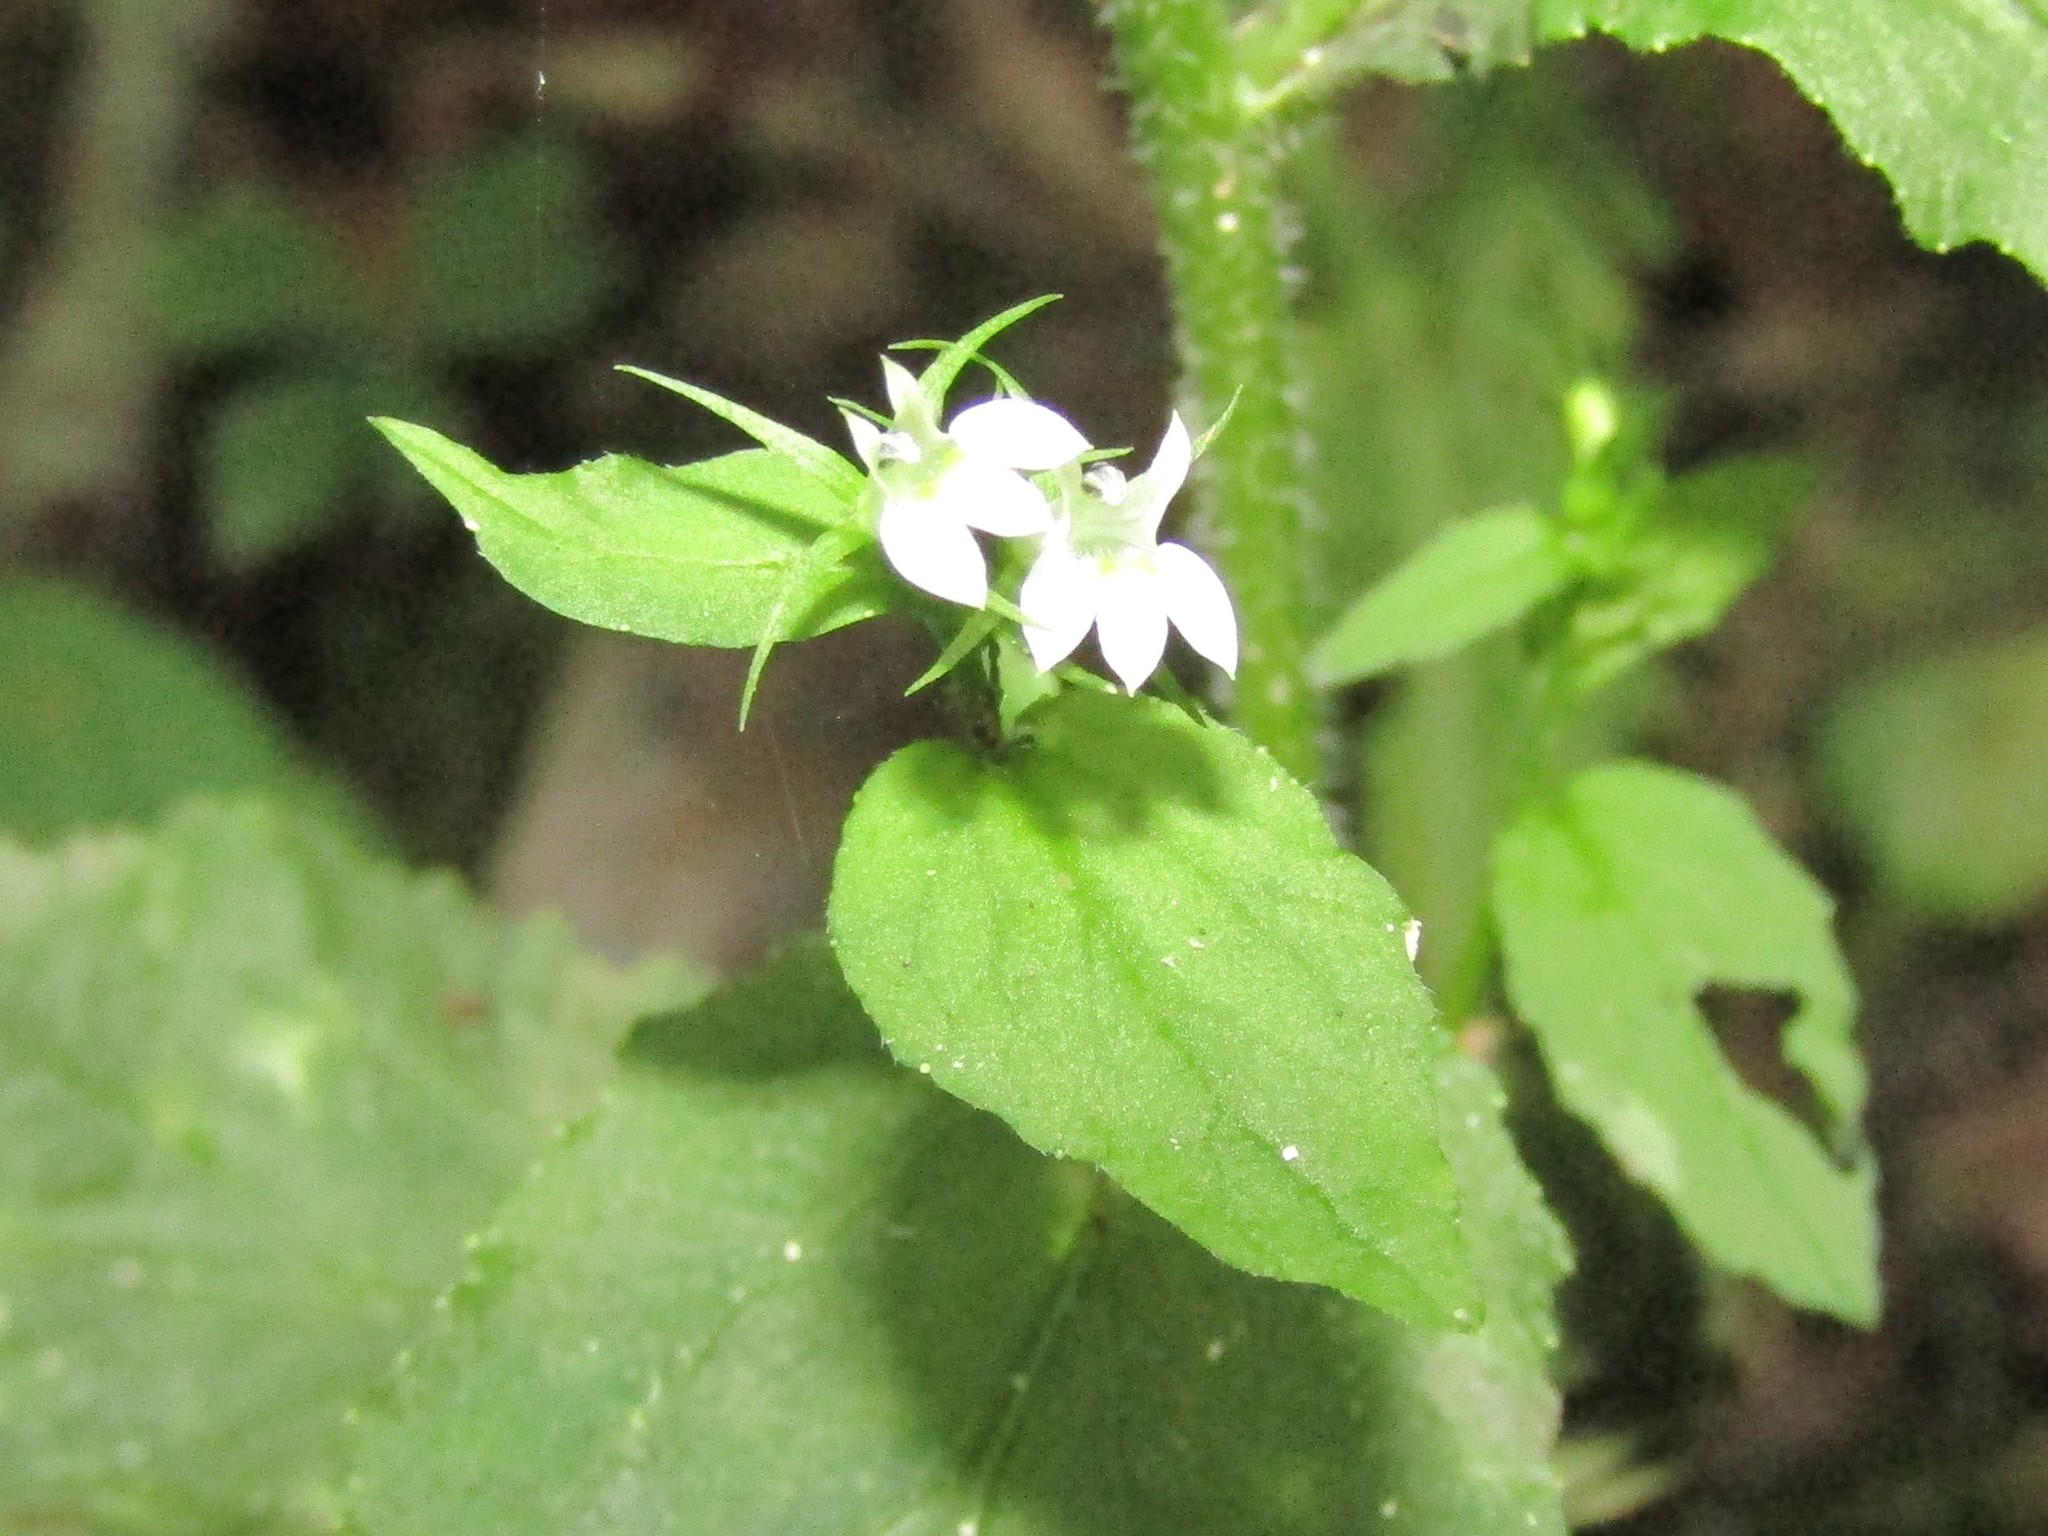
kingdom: Plantae
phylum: Tracheophyta
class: Magnoliopsida
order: Asterales
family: Campanulaceae
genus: Lobelia
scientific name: Lobelia inflata
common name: Indian tobacco
